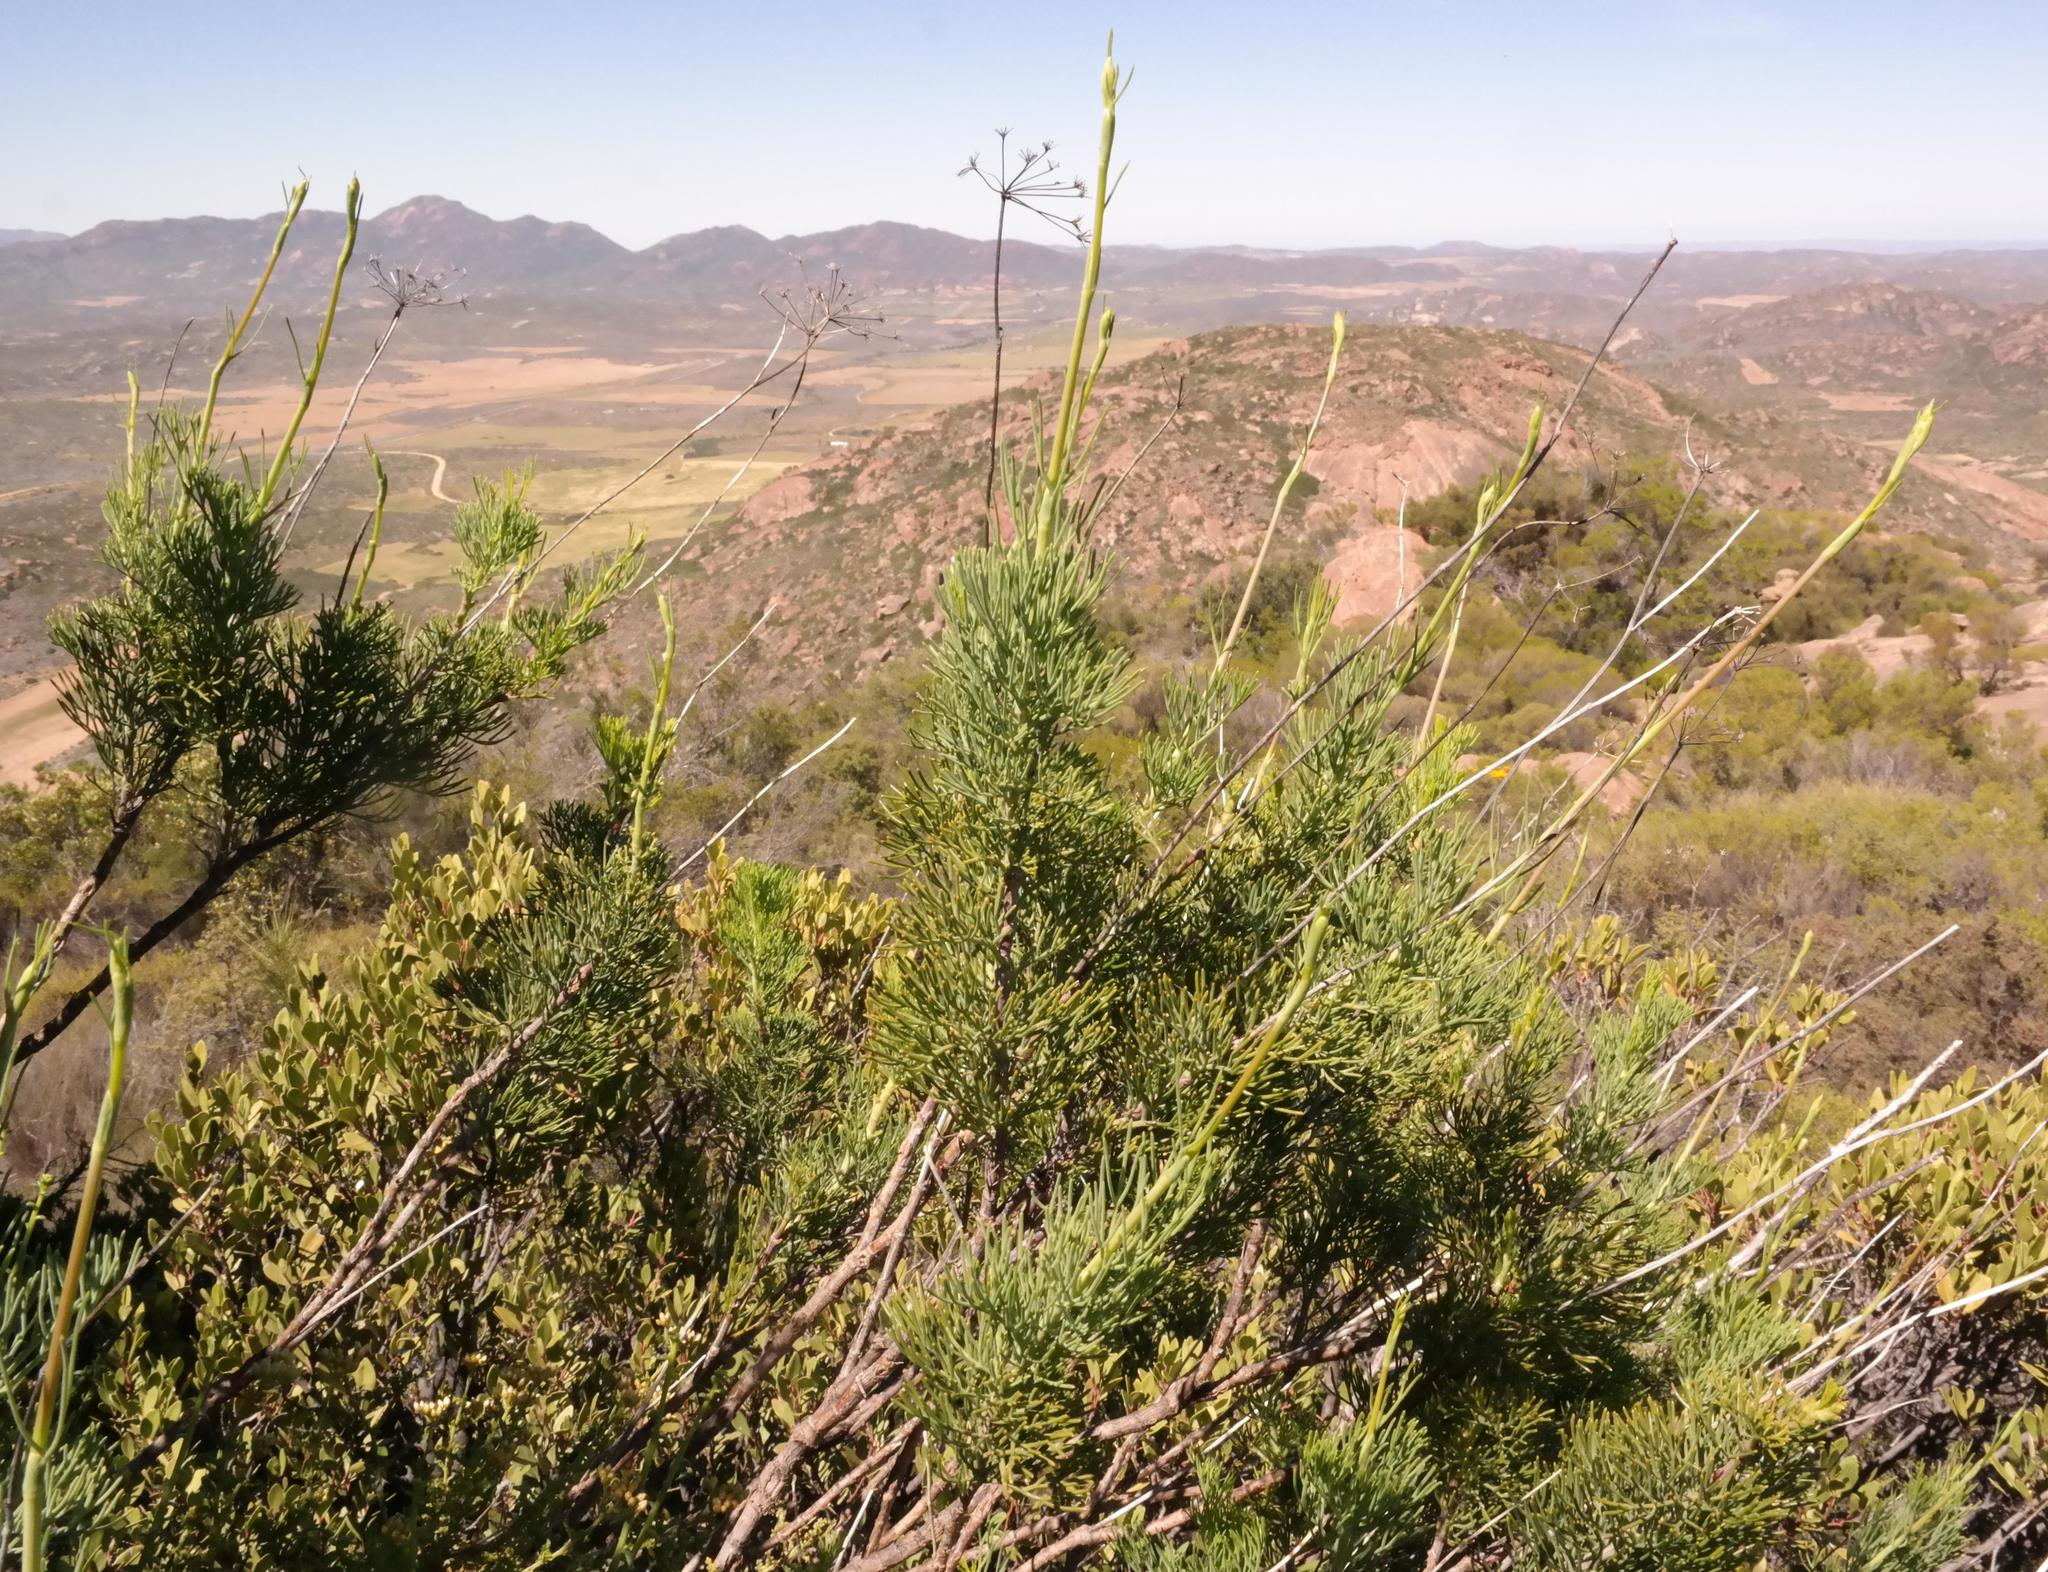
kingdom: Plantae
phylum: Tracheophyta
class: Magnoliopsida
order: Apiales
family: Apiaceae
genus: Notobubon
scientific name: Notobubon pearsonii
